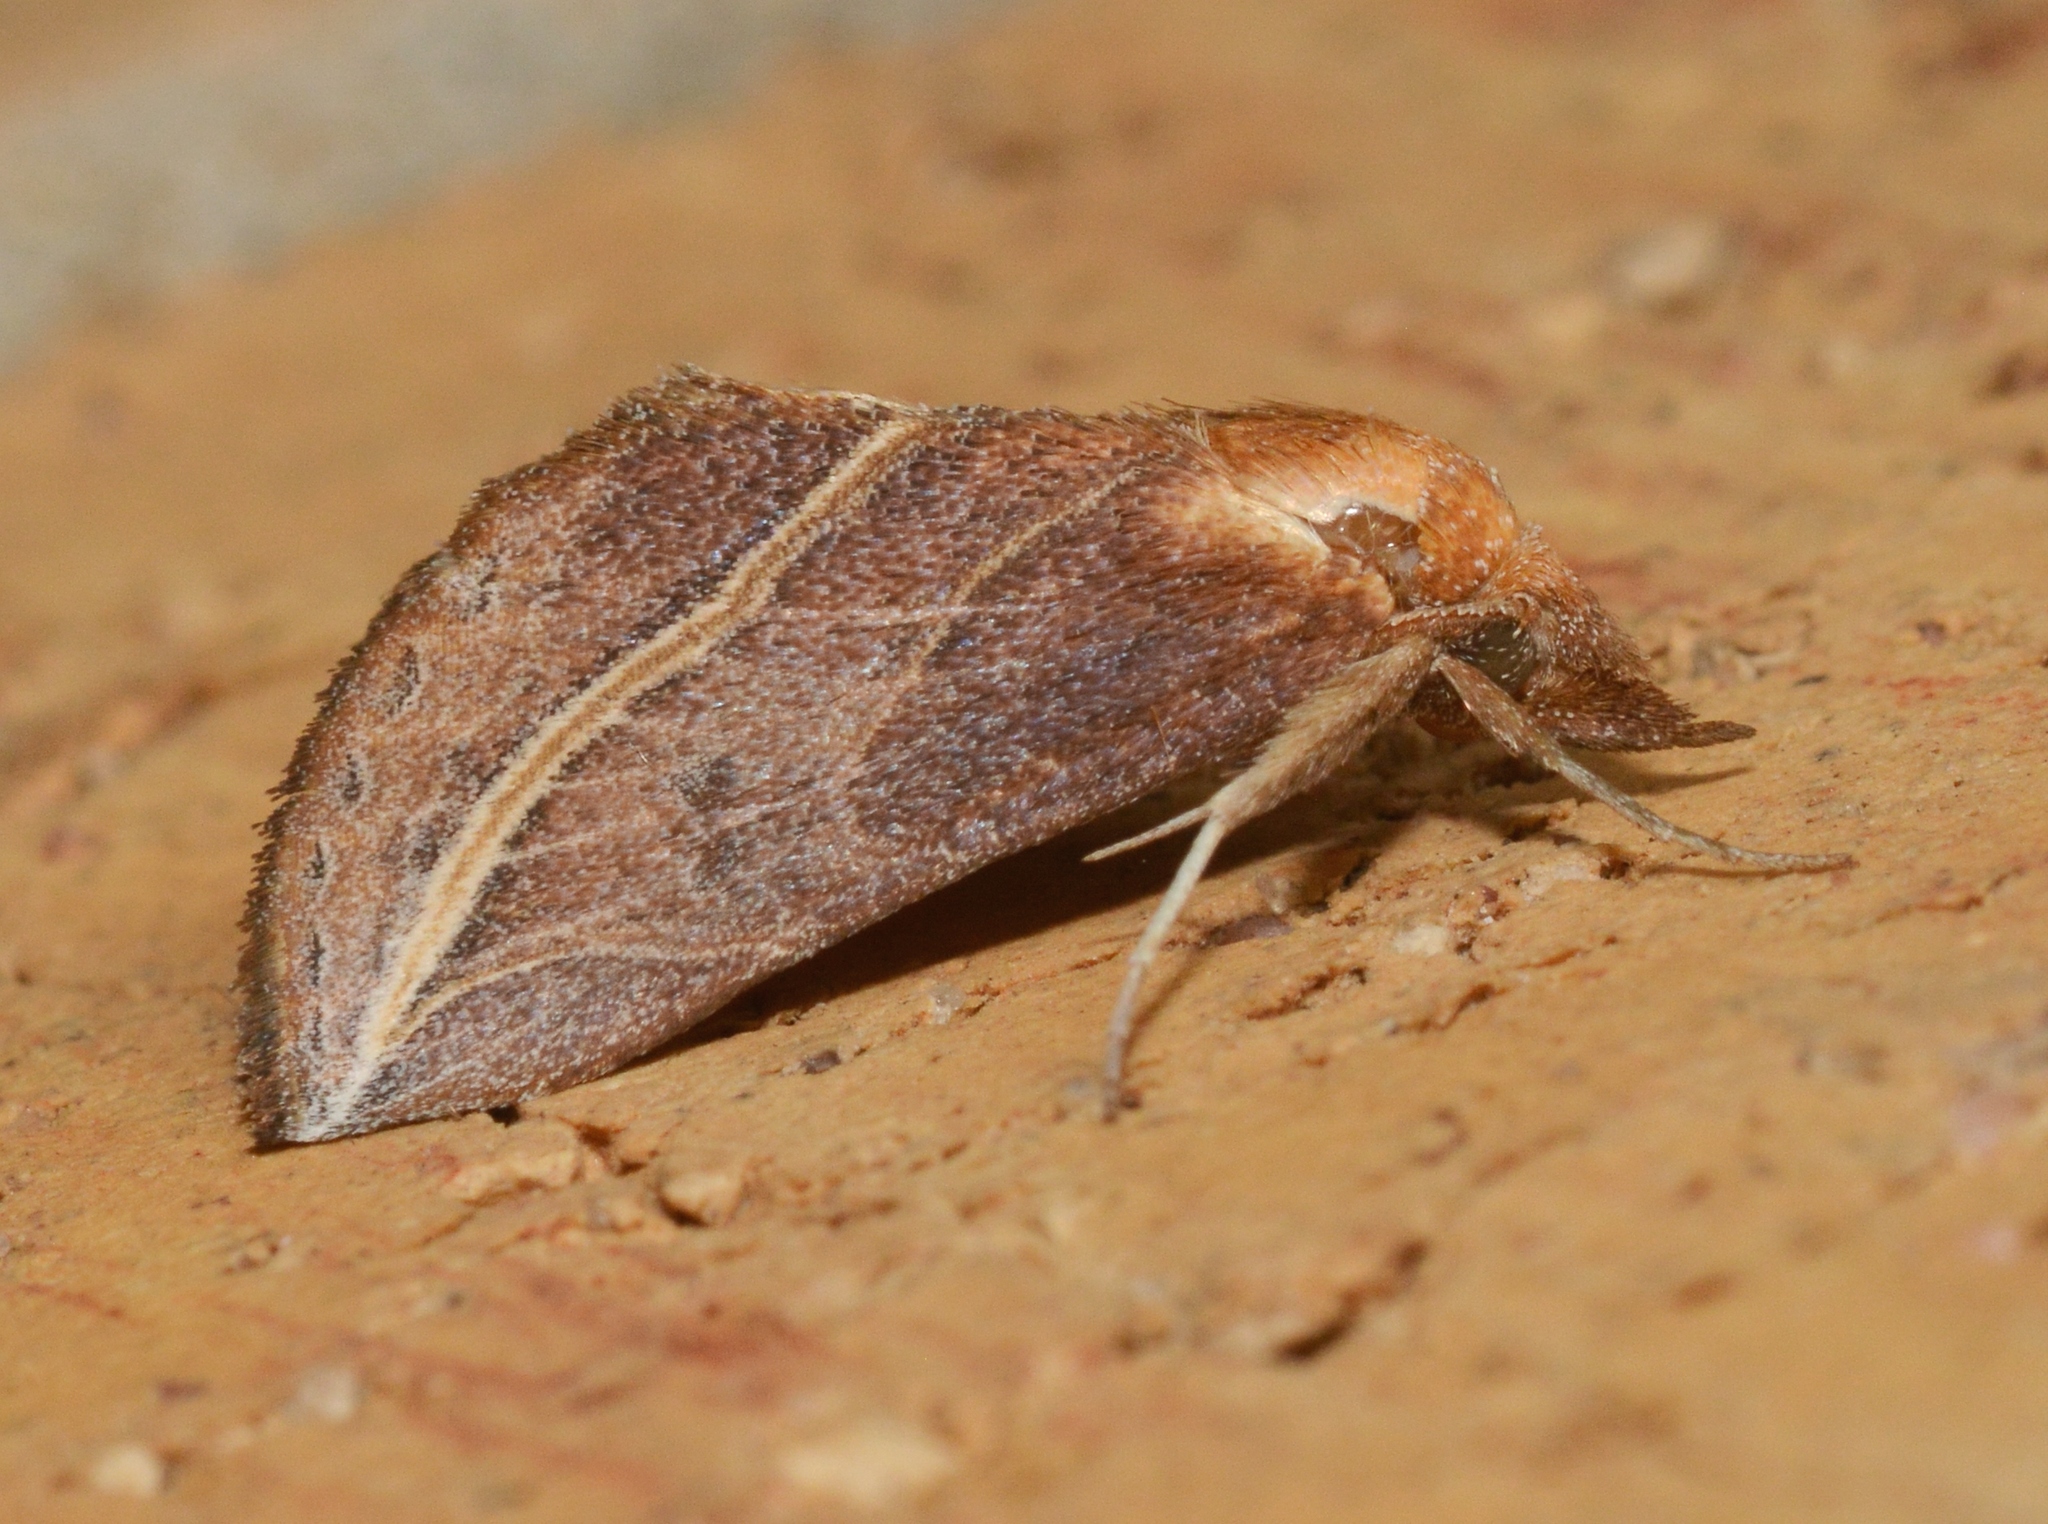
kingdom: Animalia
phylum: Arthropoda
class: Insecta
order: Lepidoptera
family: Erebidae
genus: Phyprosopus
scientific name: Phyprosopus callitrichoides
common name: Curved-lined owlet
